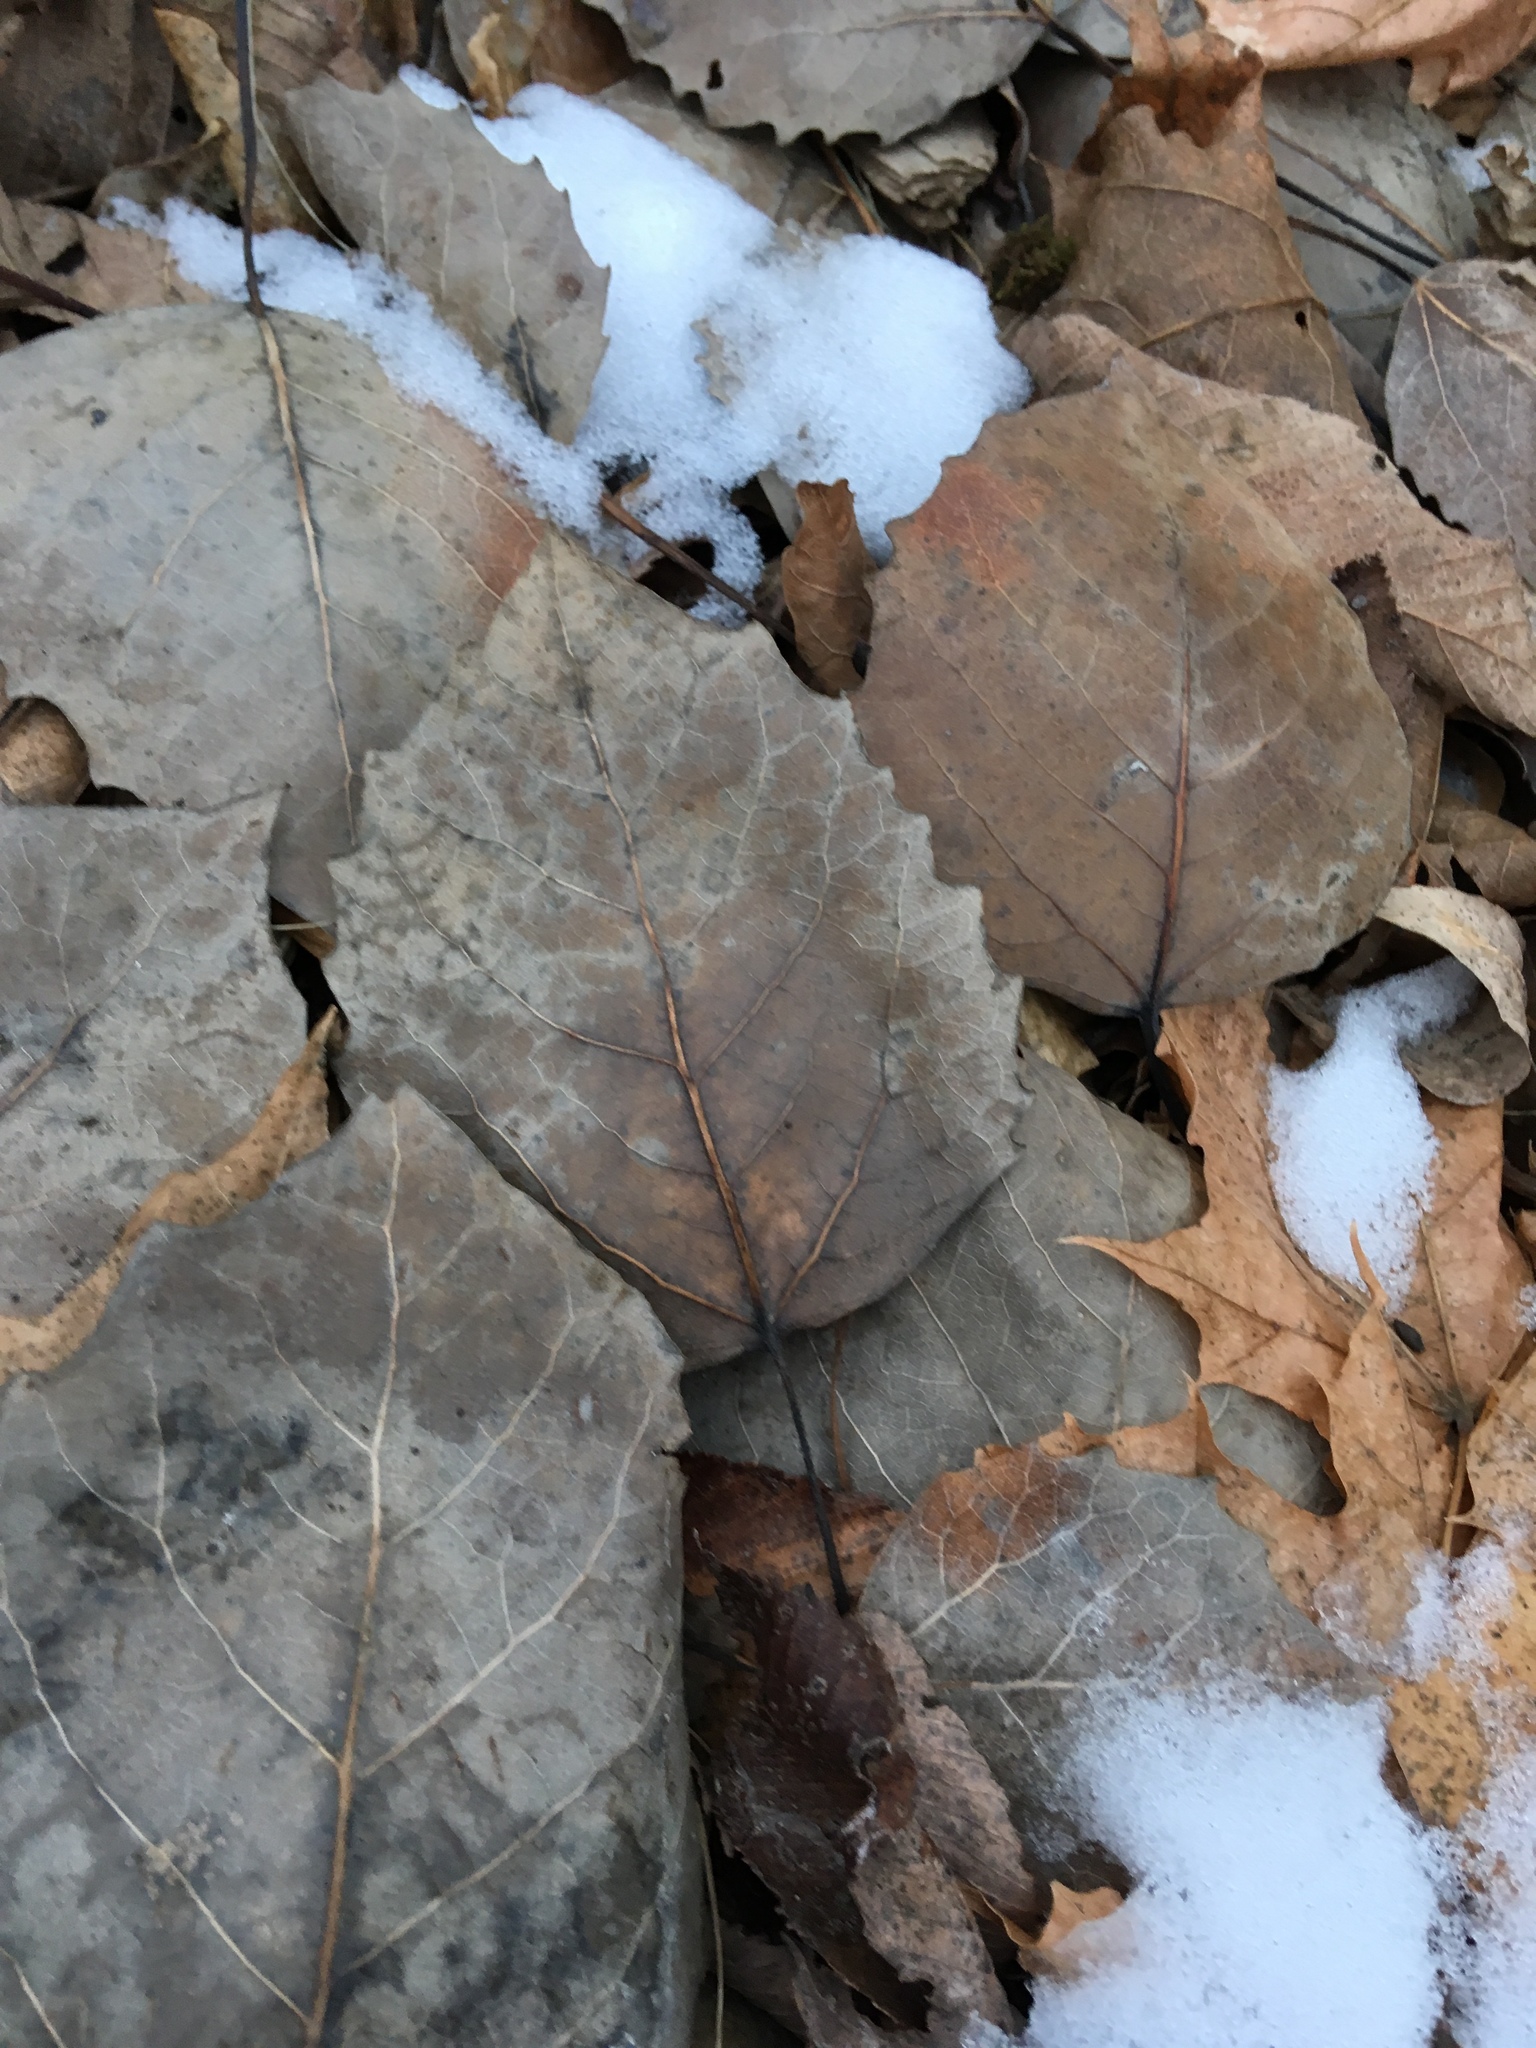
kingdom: Plantae
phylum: Tracheophyta
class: Magnoliopsida
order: Malpighiales
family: Salicaceae
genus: Populus
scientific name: Populus grandidentata
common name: Bigtooth aspen
